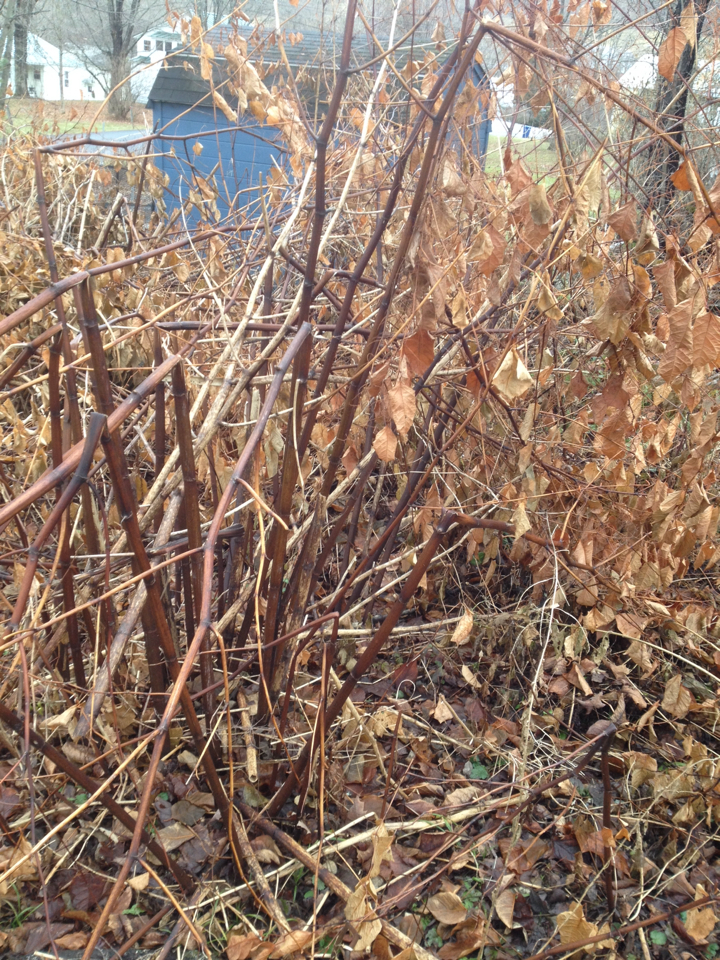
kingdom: Plantae
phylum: Tracheophyta
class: Magnoliopsida
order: Caryophyllales
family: Polygonaceae
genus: Reynoutria
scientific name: Reynoutria japonica
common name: Japanese knotweed
